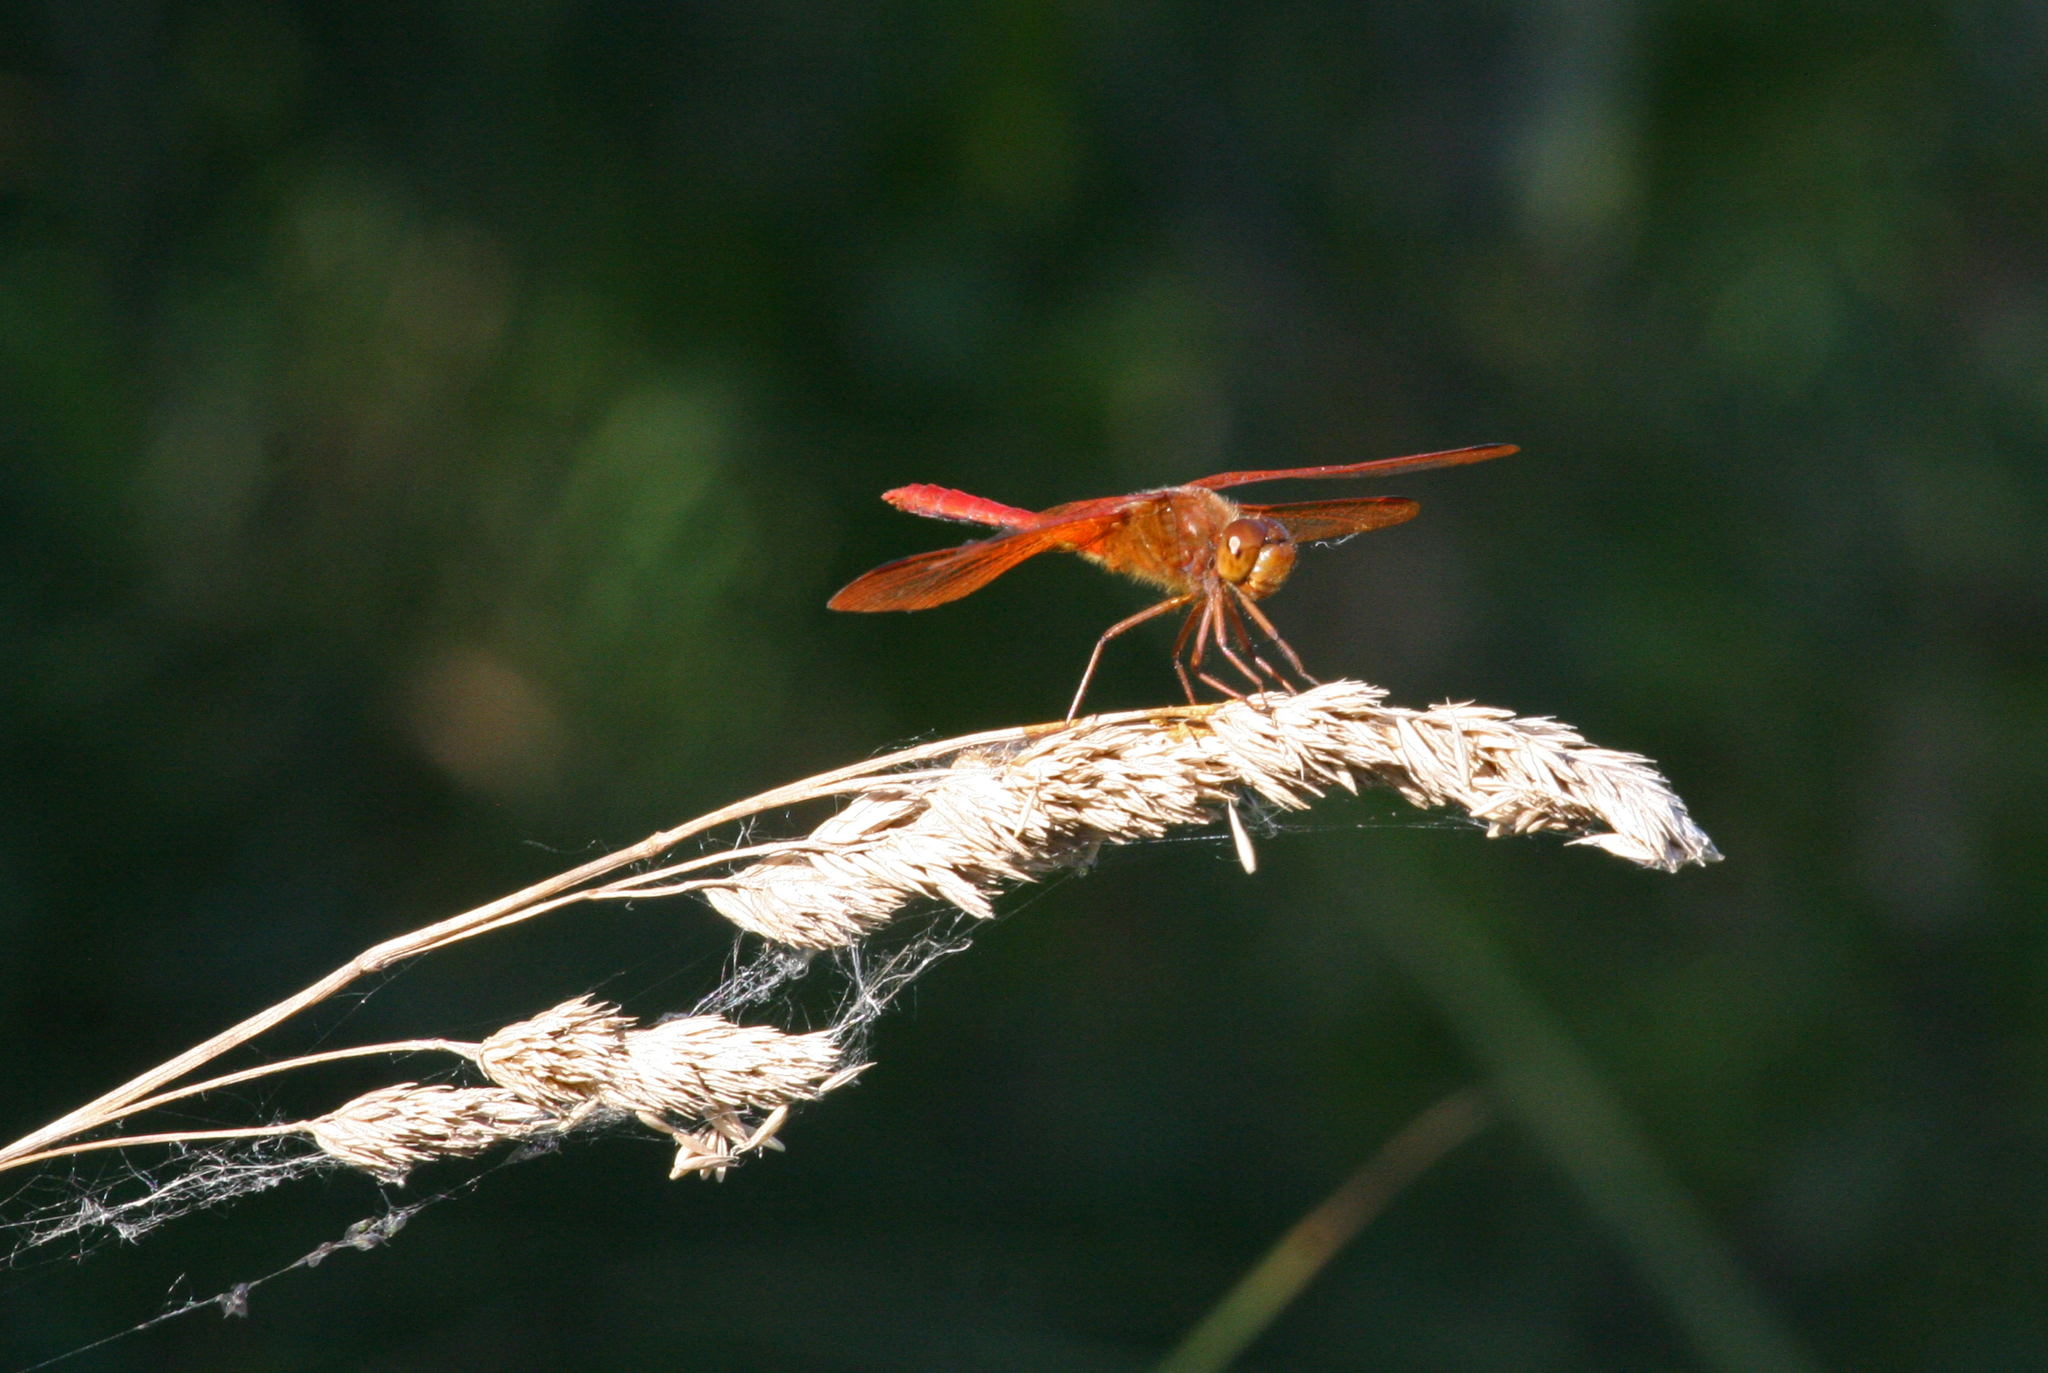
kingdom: Animalia
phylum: Arthropoda
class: Insecta
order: Odonata
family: Libellulidae
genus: Sympetrum
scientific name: Sympetrum croceolum
